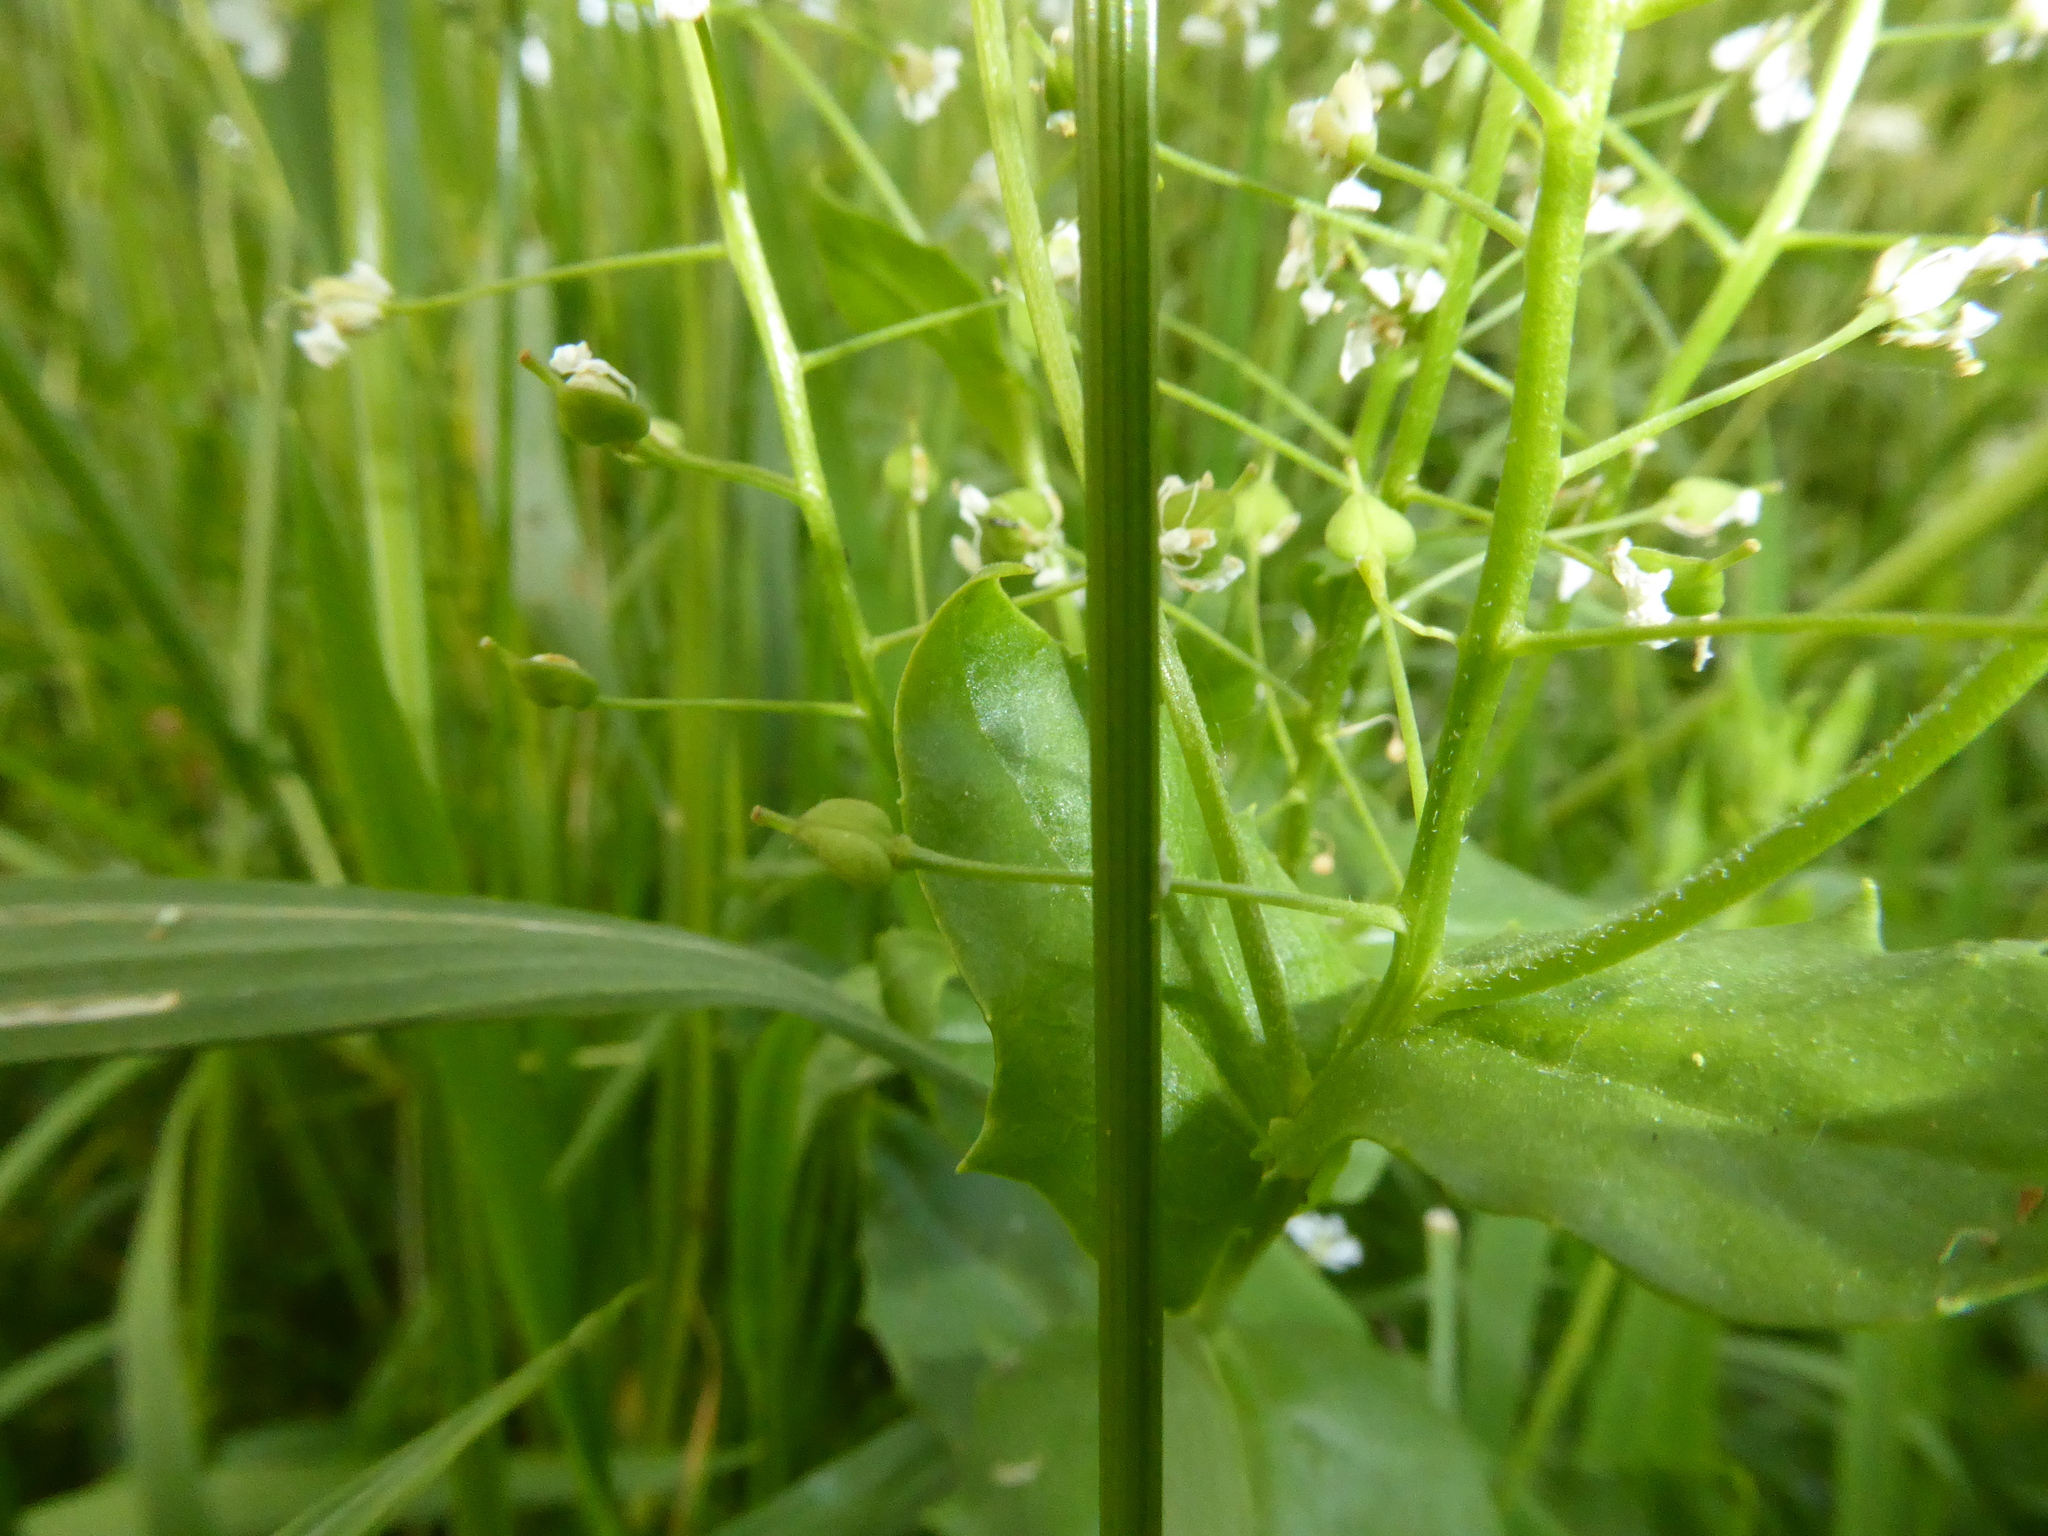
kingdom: Plantae
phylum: Tracheophyta
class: Magnoliopsida
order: Brassicales
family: Brassicaceae
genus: Lepidium
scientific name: Lepidium draba
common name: Hoary cress
